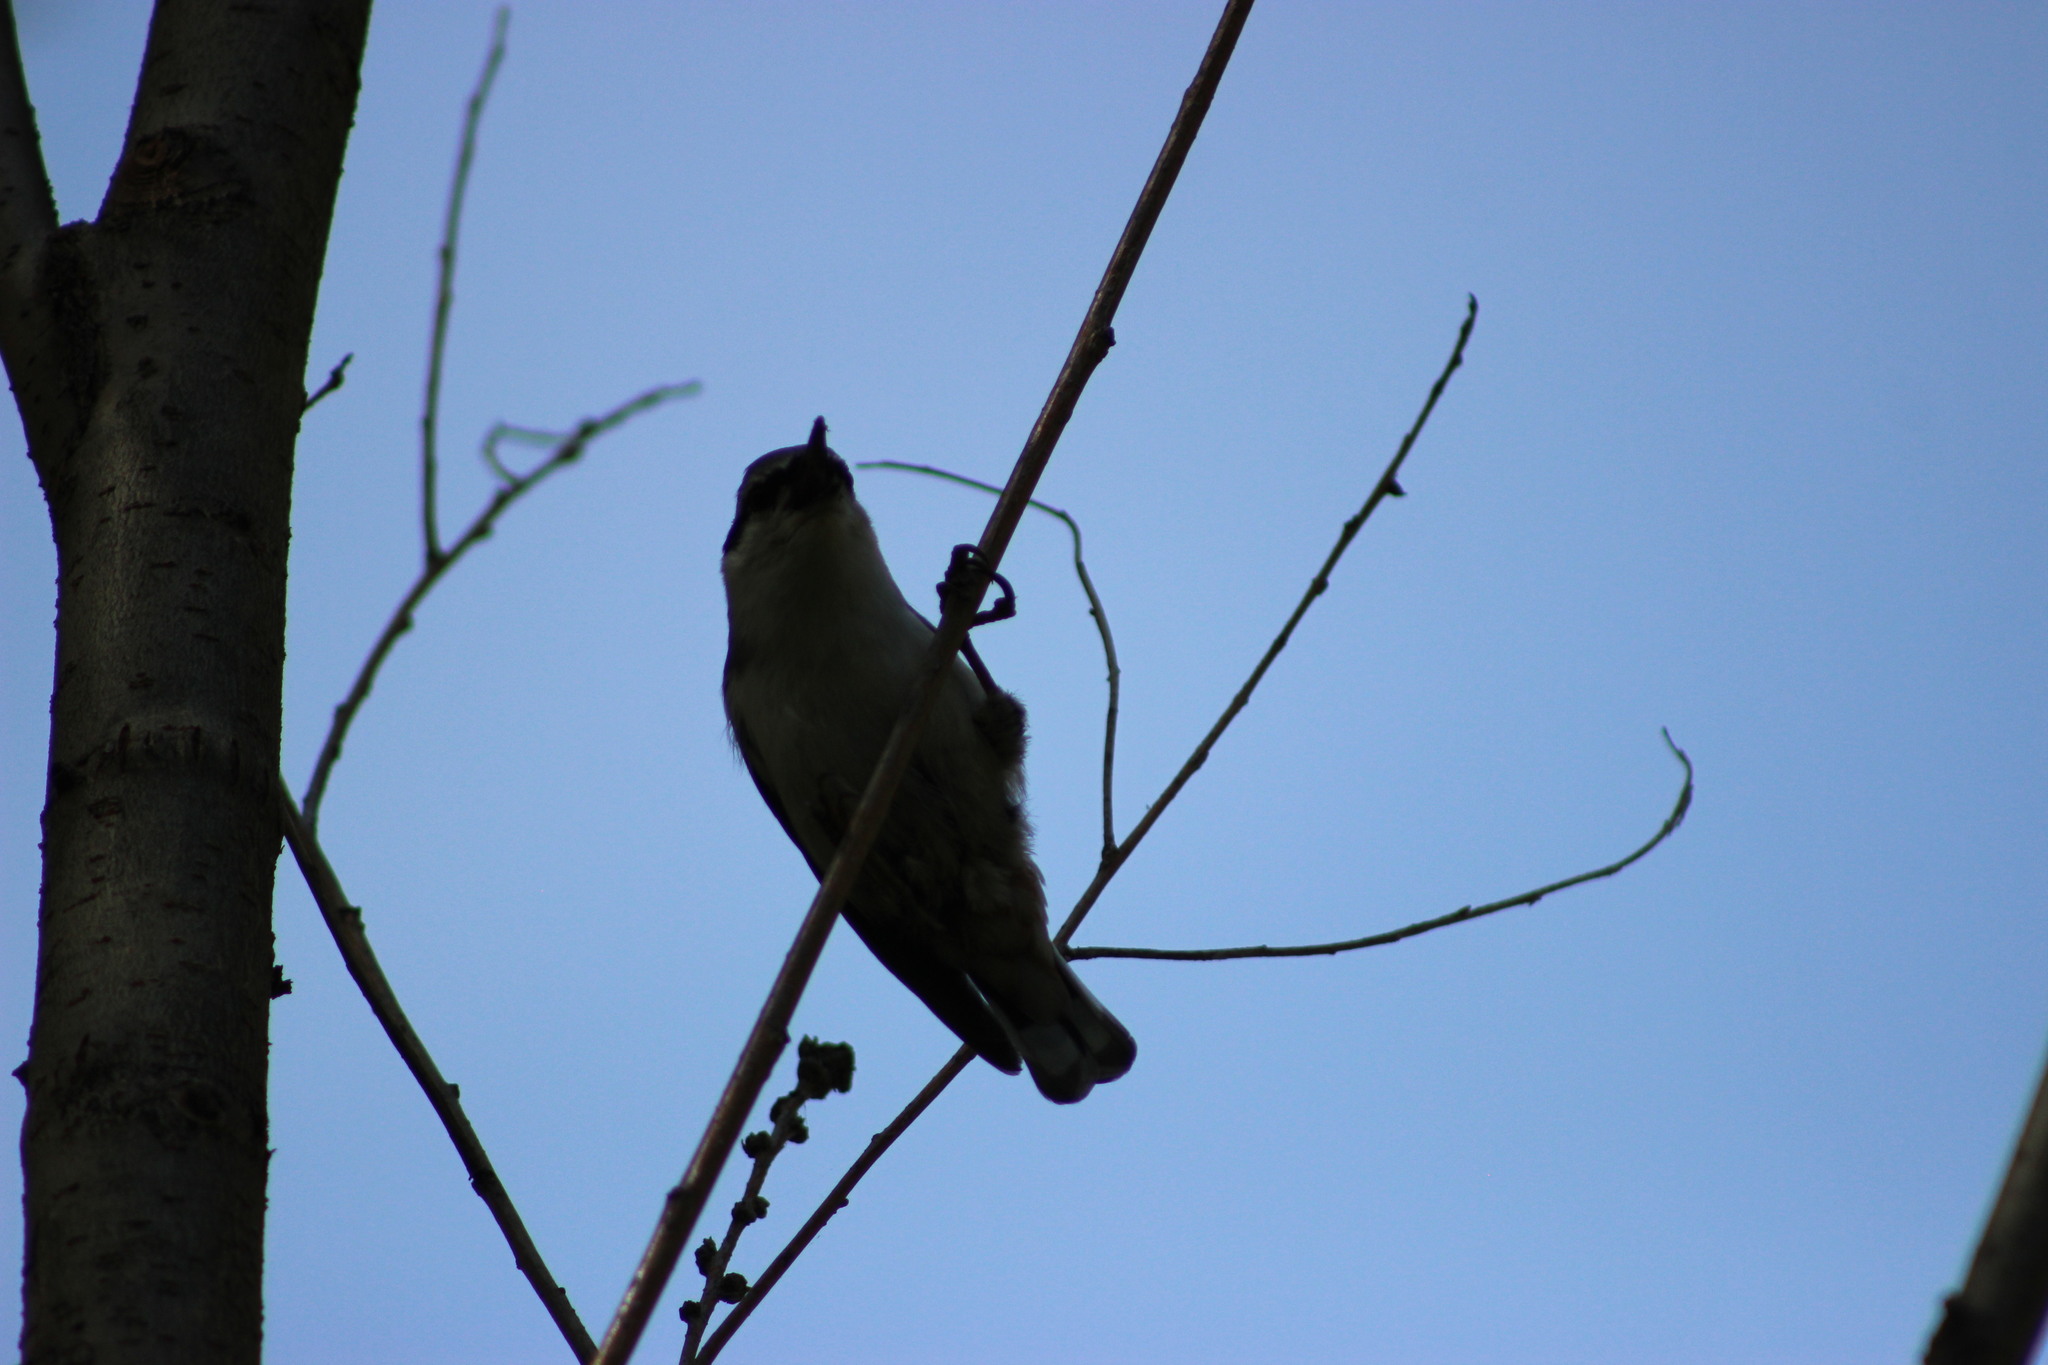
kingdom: Animalia
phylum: Chordata
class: Aves
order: Passeriformes
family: Sittidae
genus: Sitta
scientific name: Sitta europaea
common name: Eurasian nuthatch
